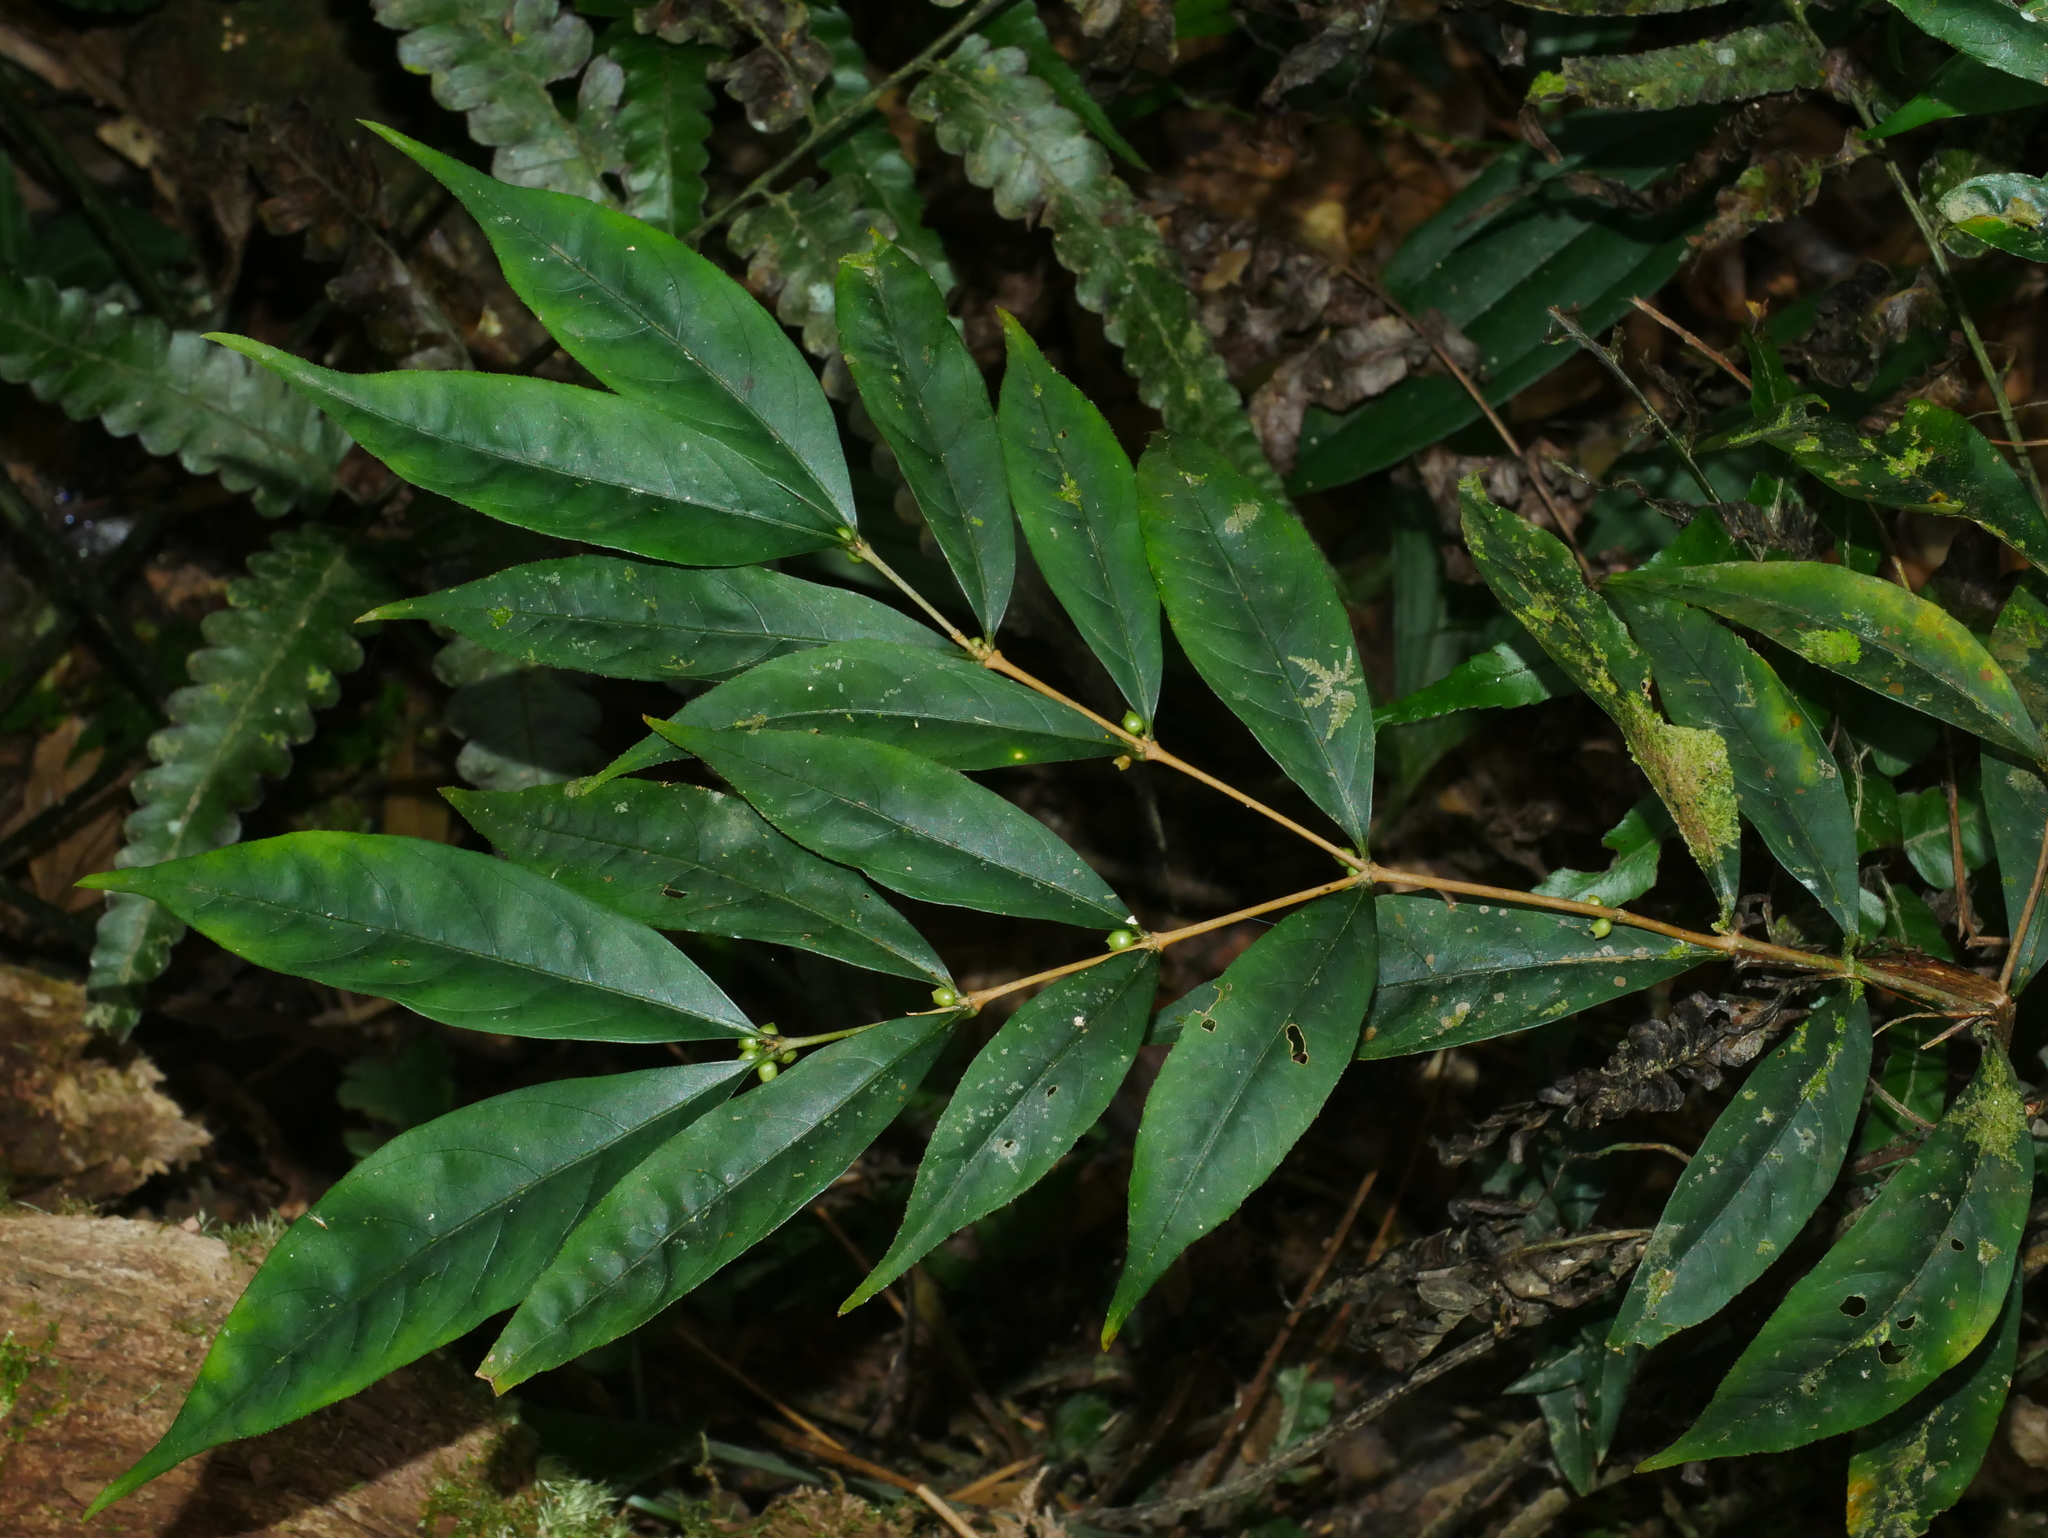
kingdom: Plantae
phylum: Tracheophyta
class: Magnoliopsida
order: Gentianales
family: Rubiaceae
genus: Damnacanthus
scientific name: Damnacanthus giganteus
